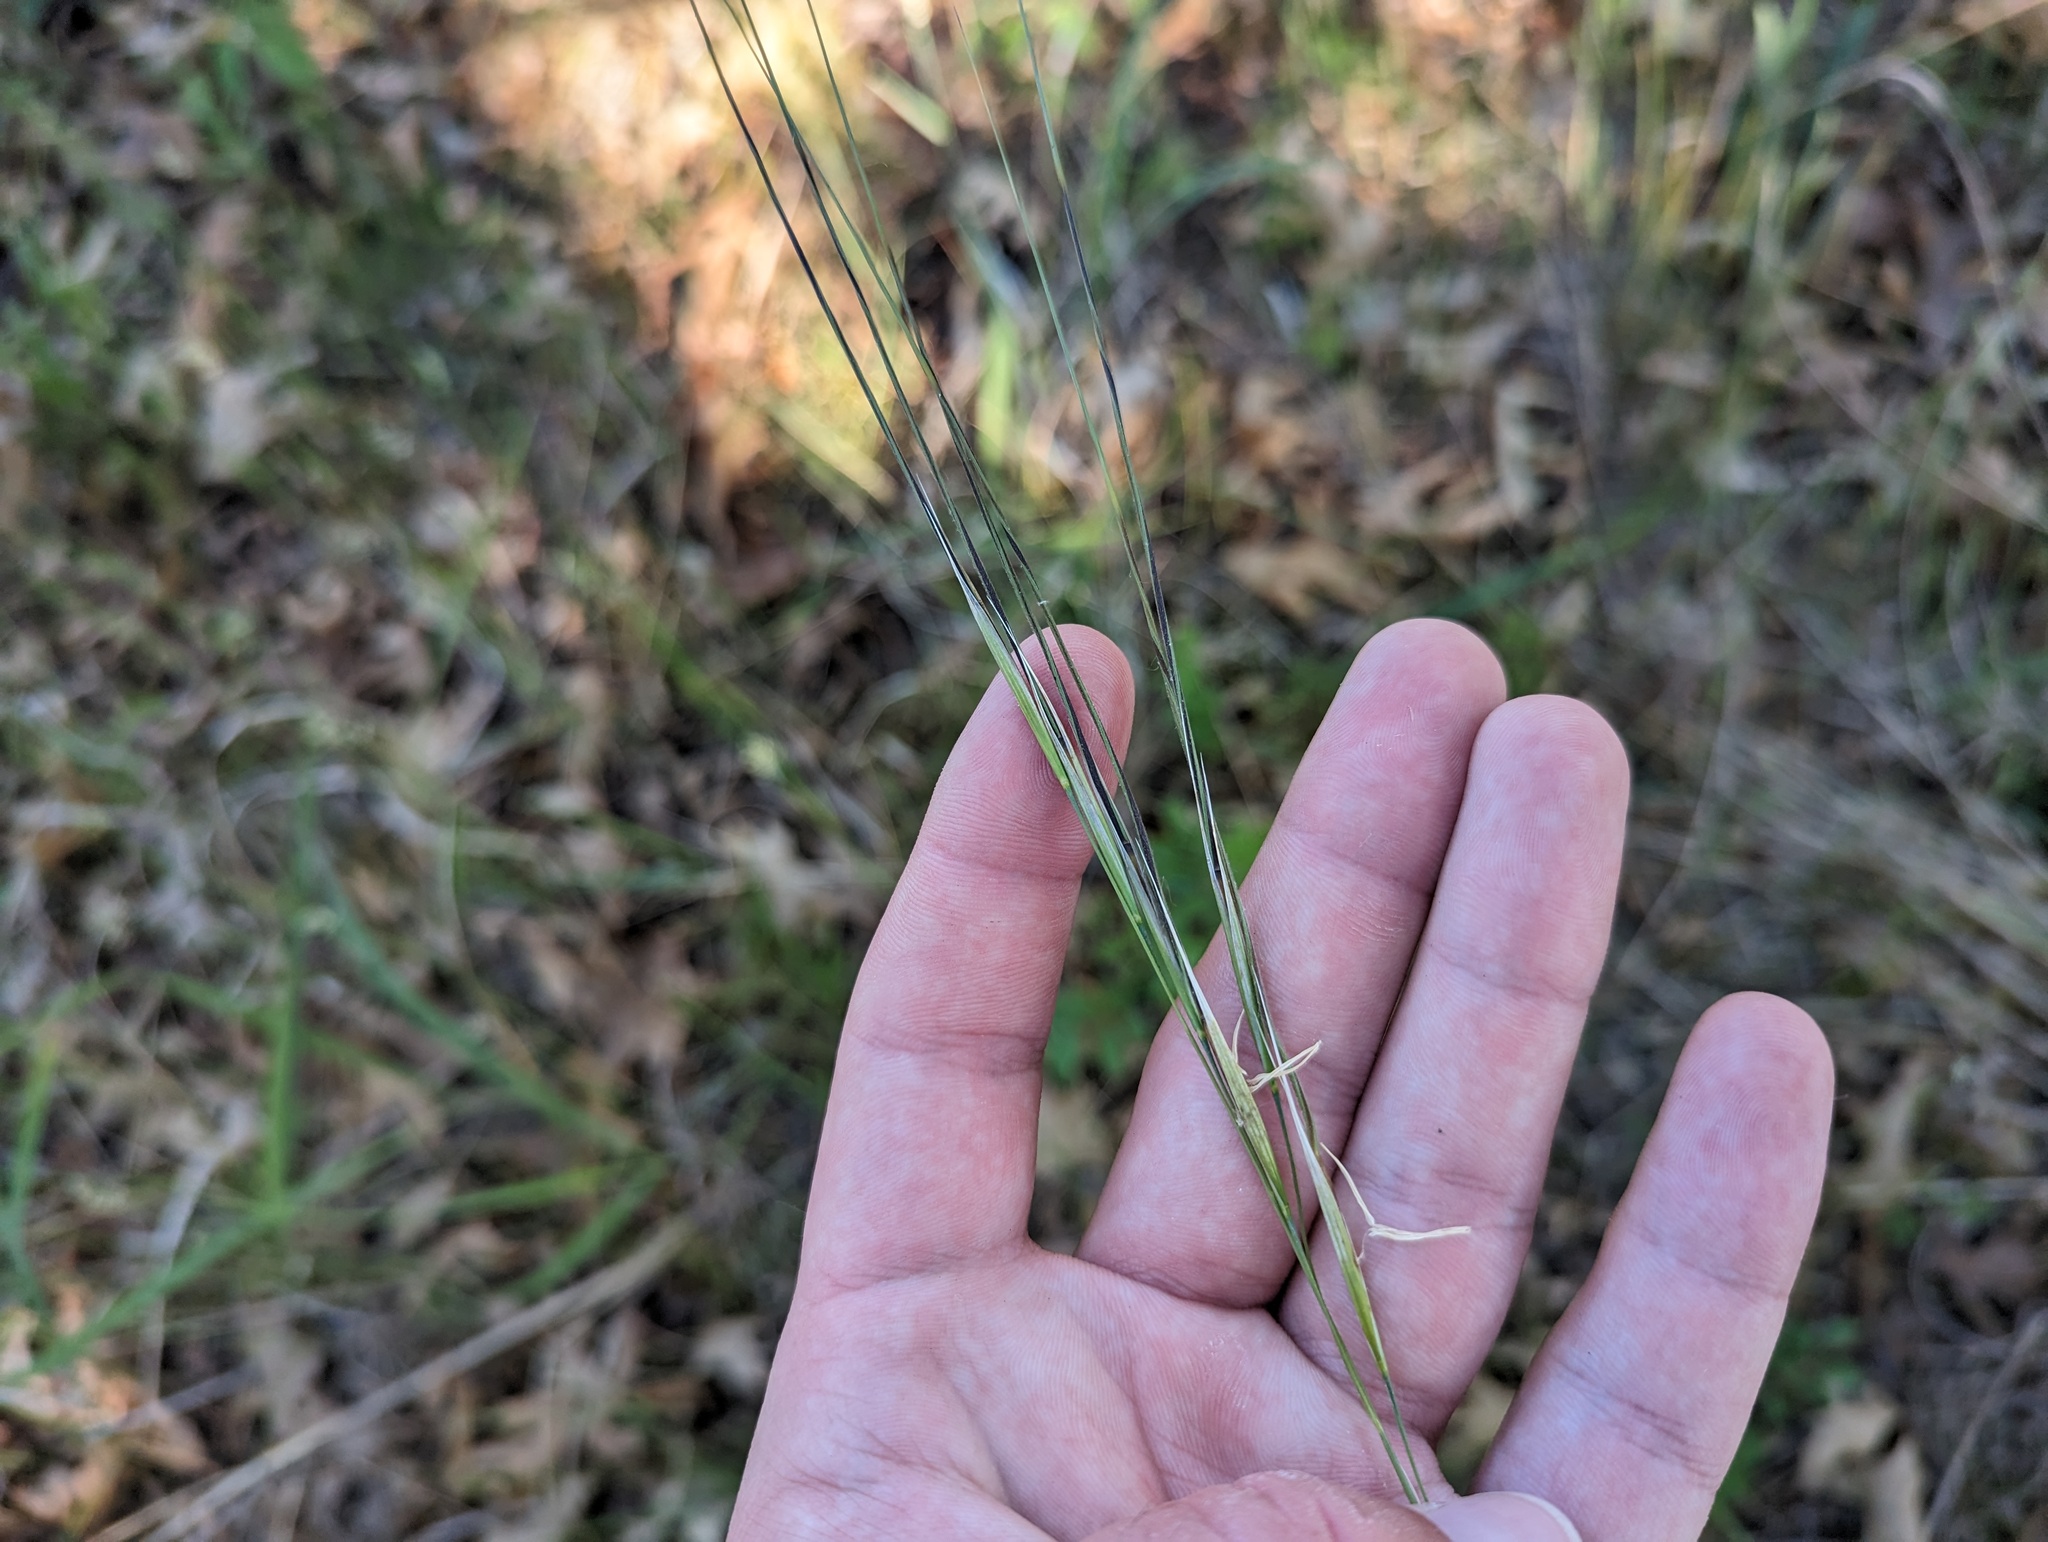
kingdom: Plantae
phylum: Tracheophyta
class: Liliopsida
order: Poales
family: Poaceae
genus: Hesperostipa
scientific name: Hesperostipa spartea
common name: Porcupine grass
